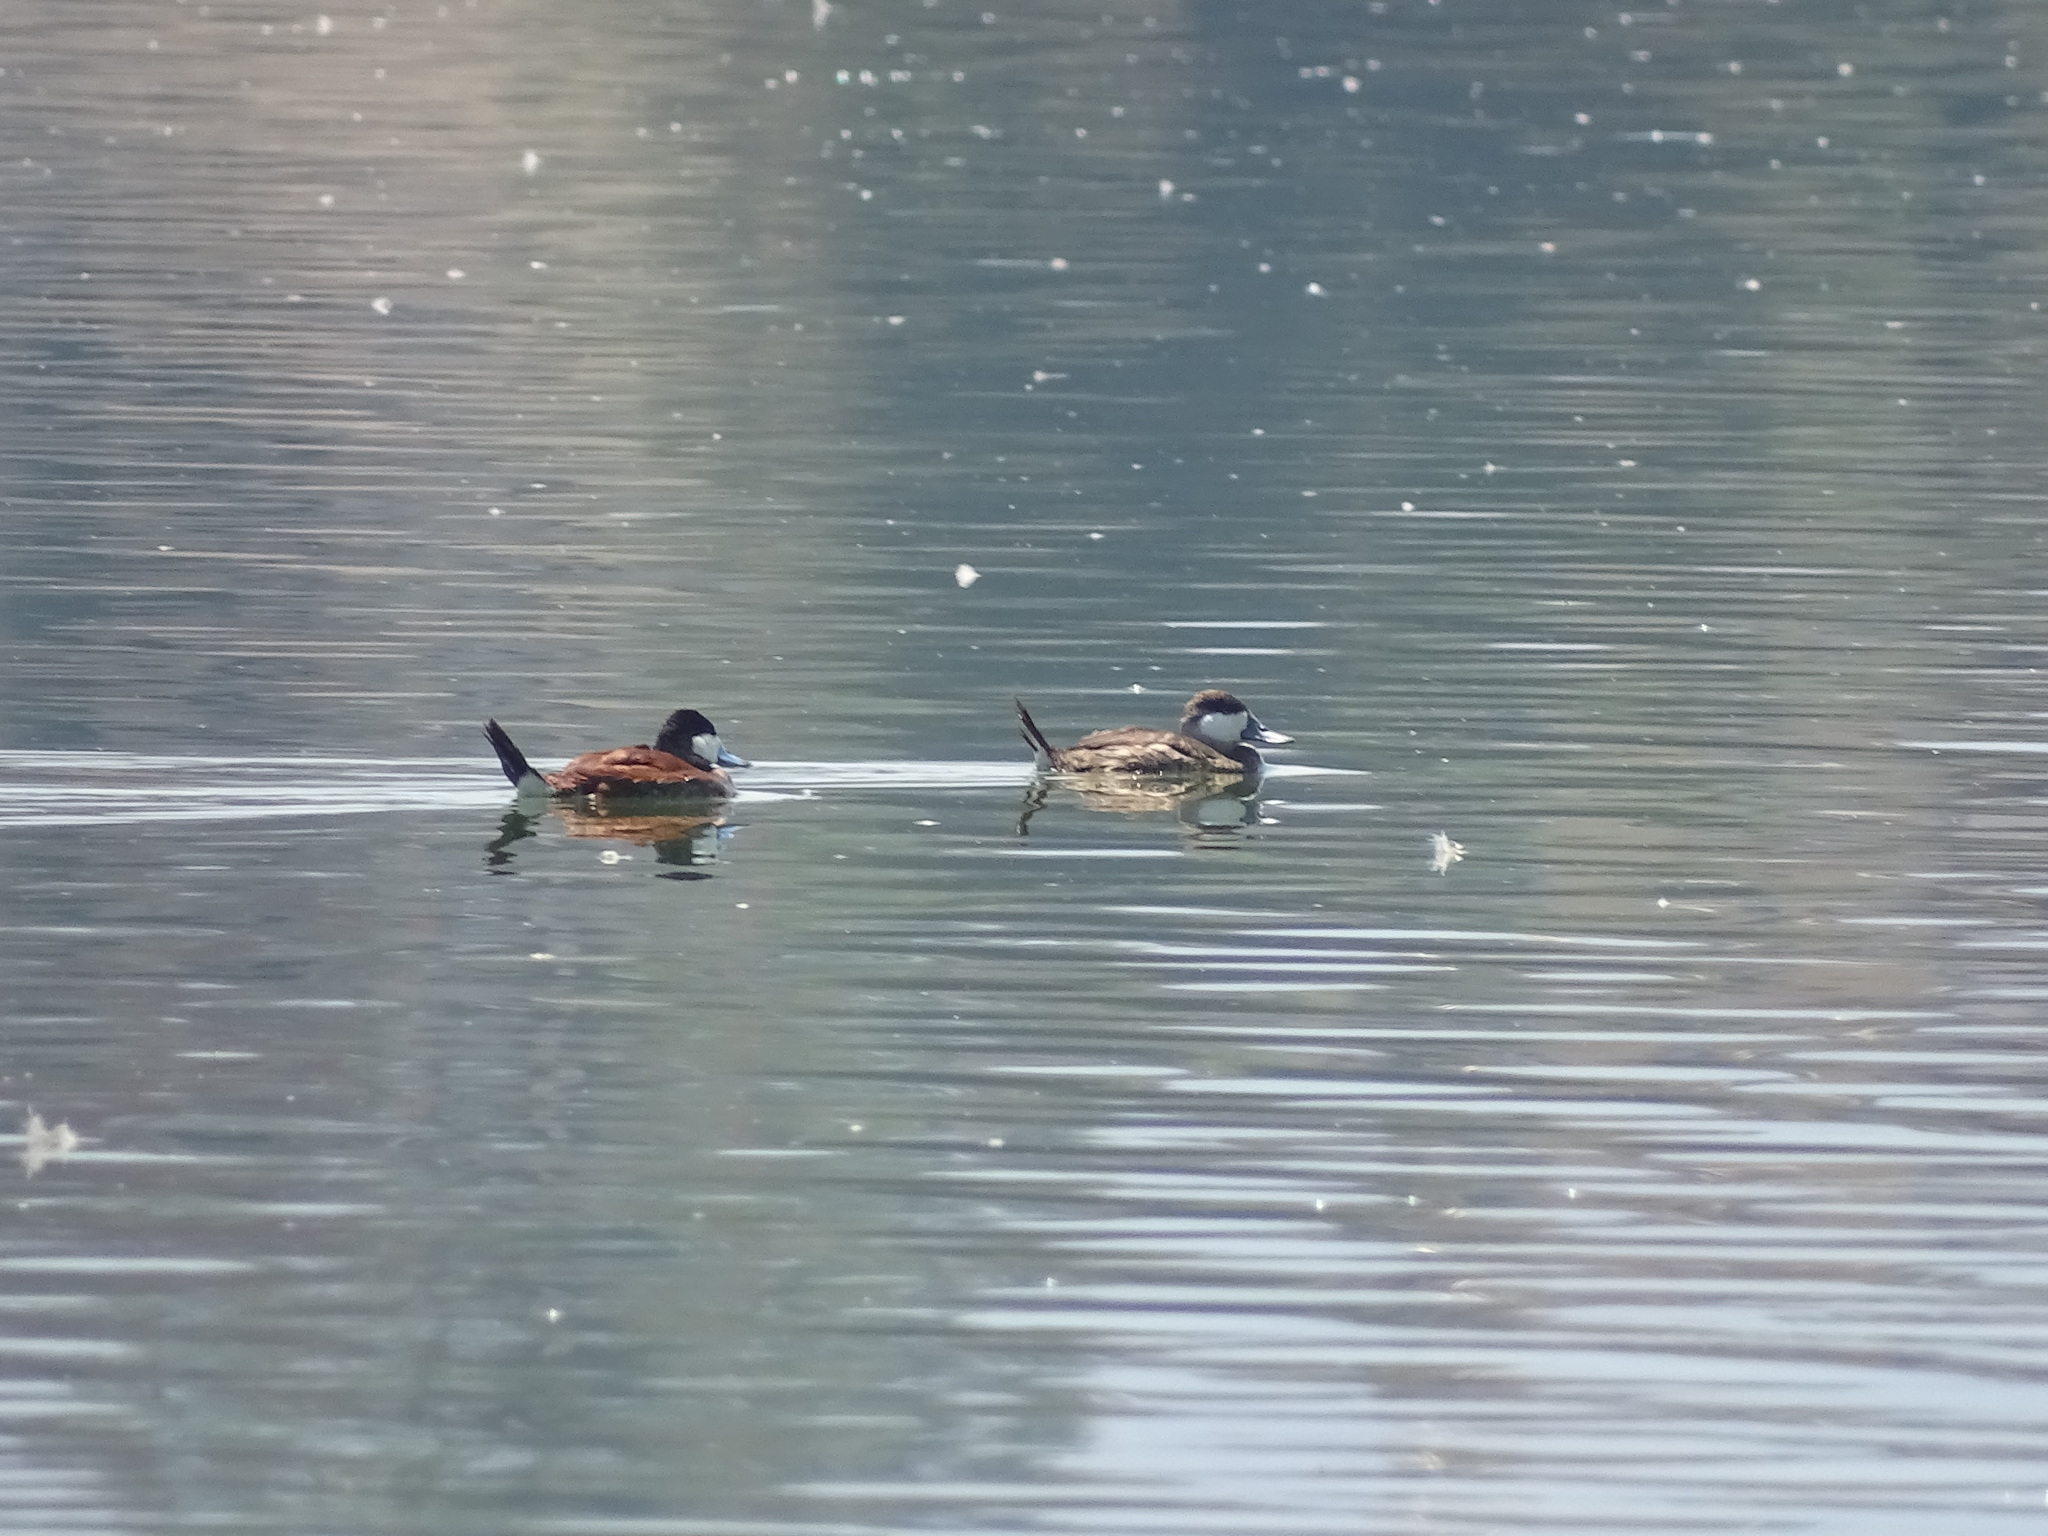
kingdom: Animalia
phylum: Chordata
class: Aves
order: Anseriformes
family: Anatidae
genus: Oxyura
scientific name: Oxyura jamaicensis
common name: Ruddy duck
